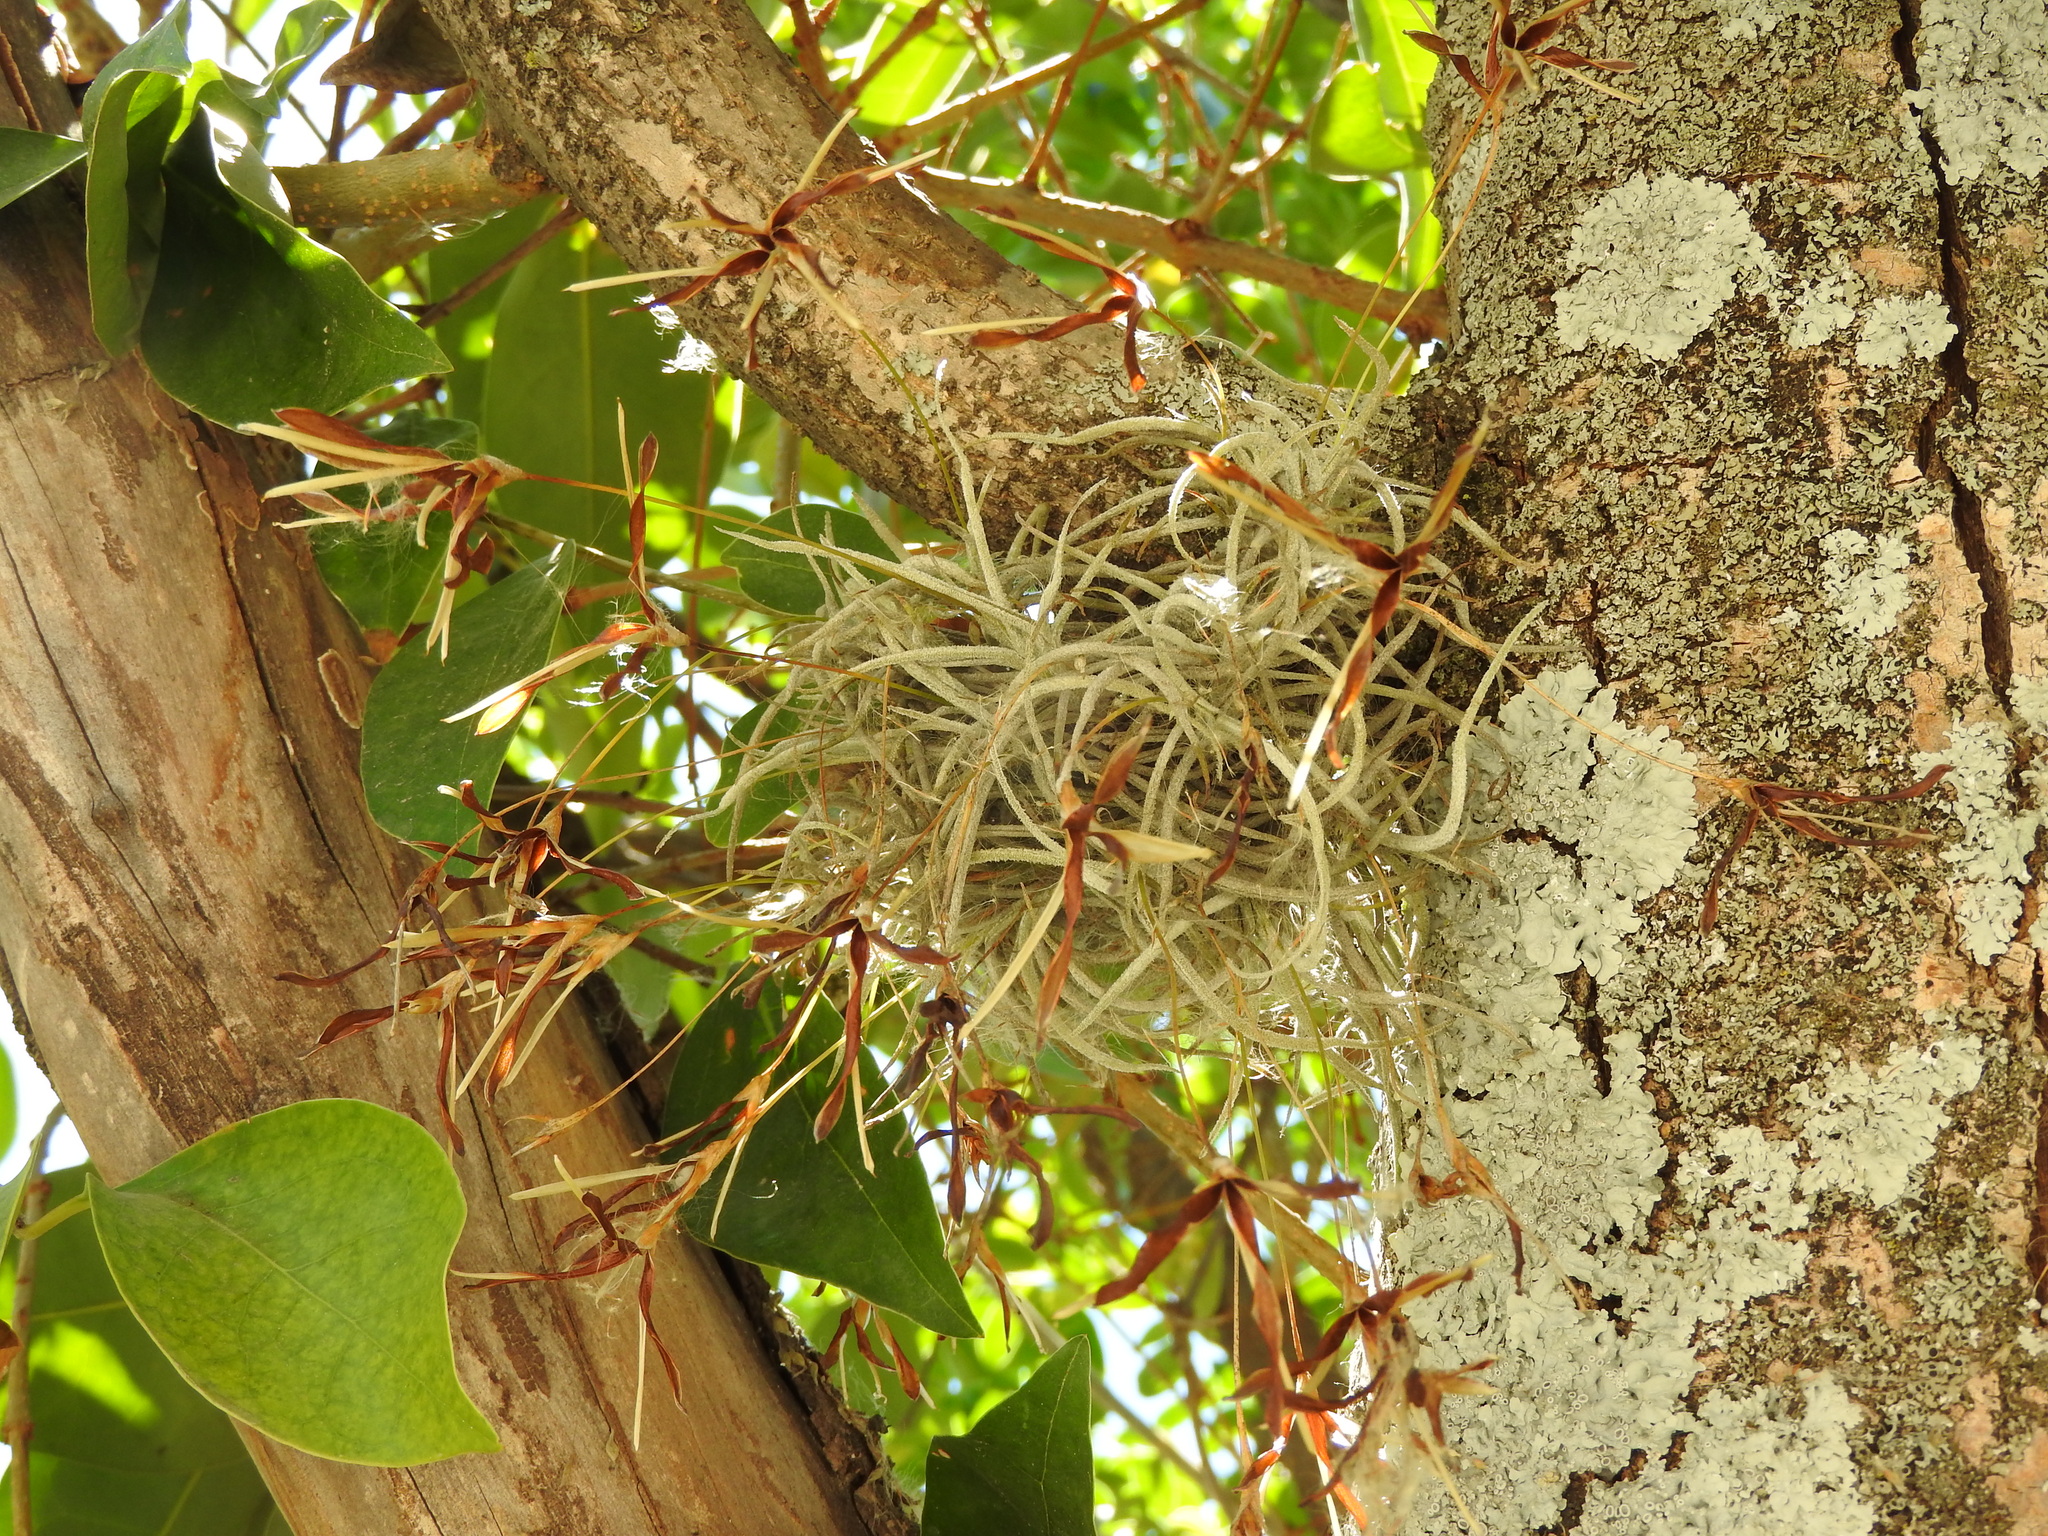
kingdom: Plantae
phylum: Tracheophyta
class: Liliopsida
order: Poales
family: Bromeliaceae
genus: Tillandsia
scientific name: Tillandsia recurvata
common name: Small ballmoss
